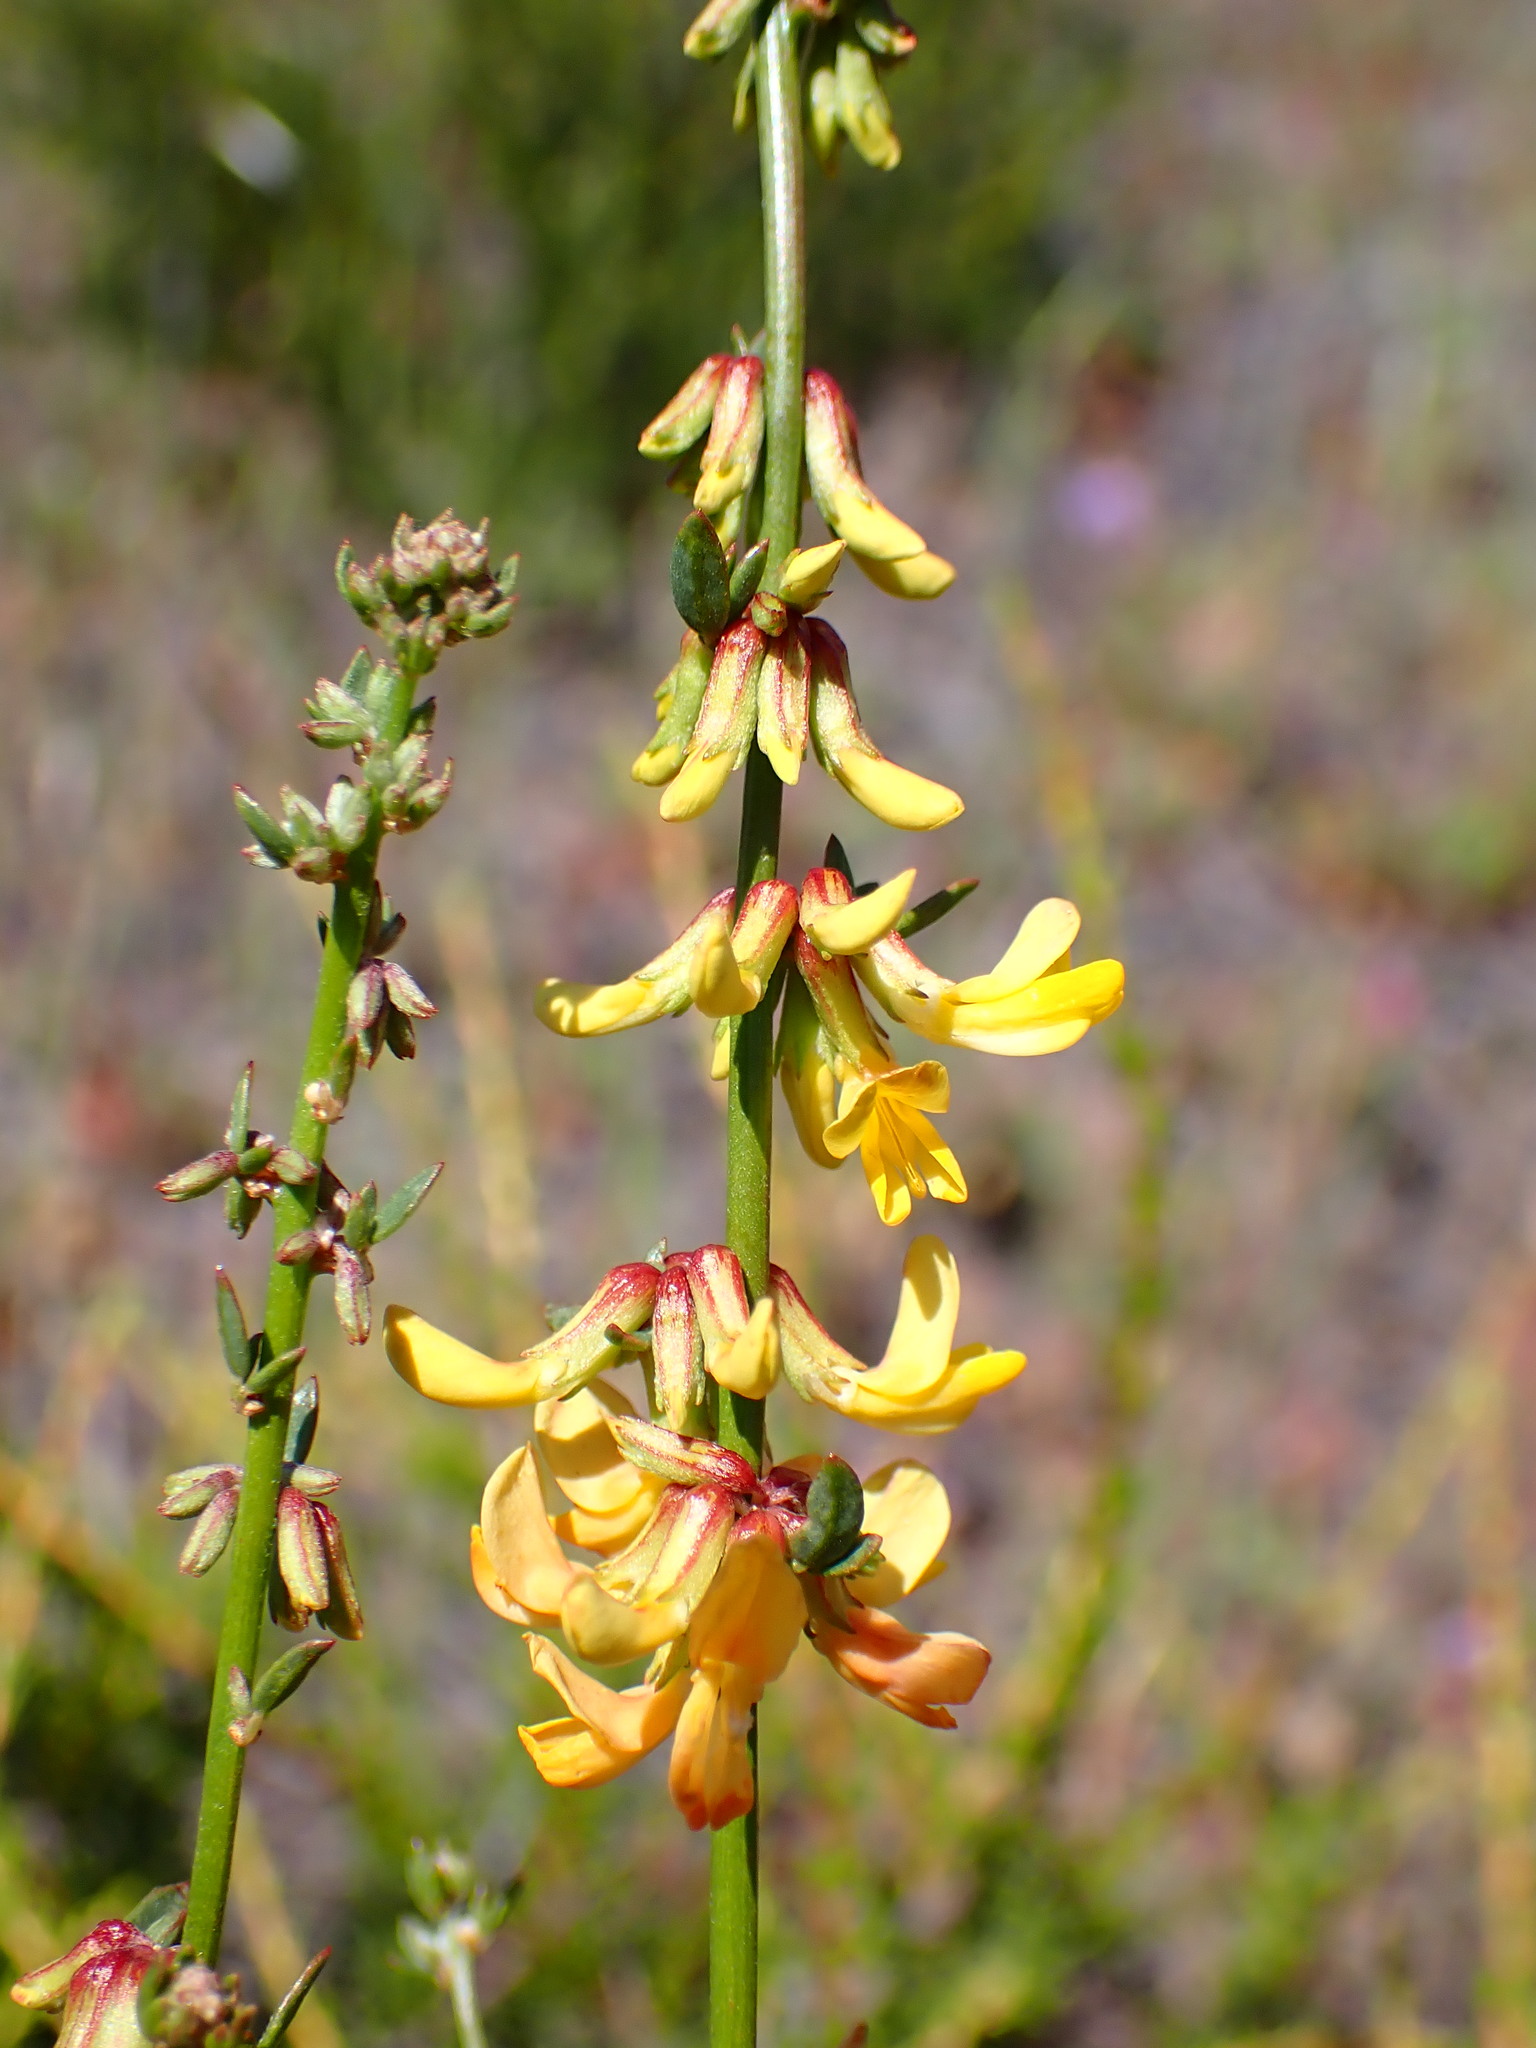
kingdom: Plantae
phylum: Tracheophyta
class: Magnoliopsida
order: Fabales
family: Fabaceae
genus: Acmispon
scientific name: Acmispon glaber
